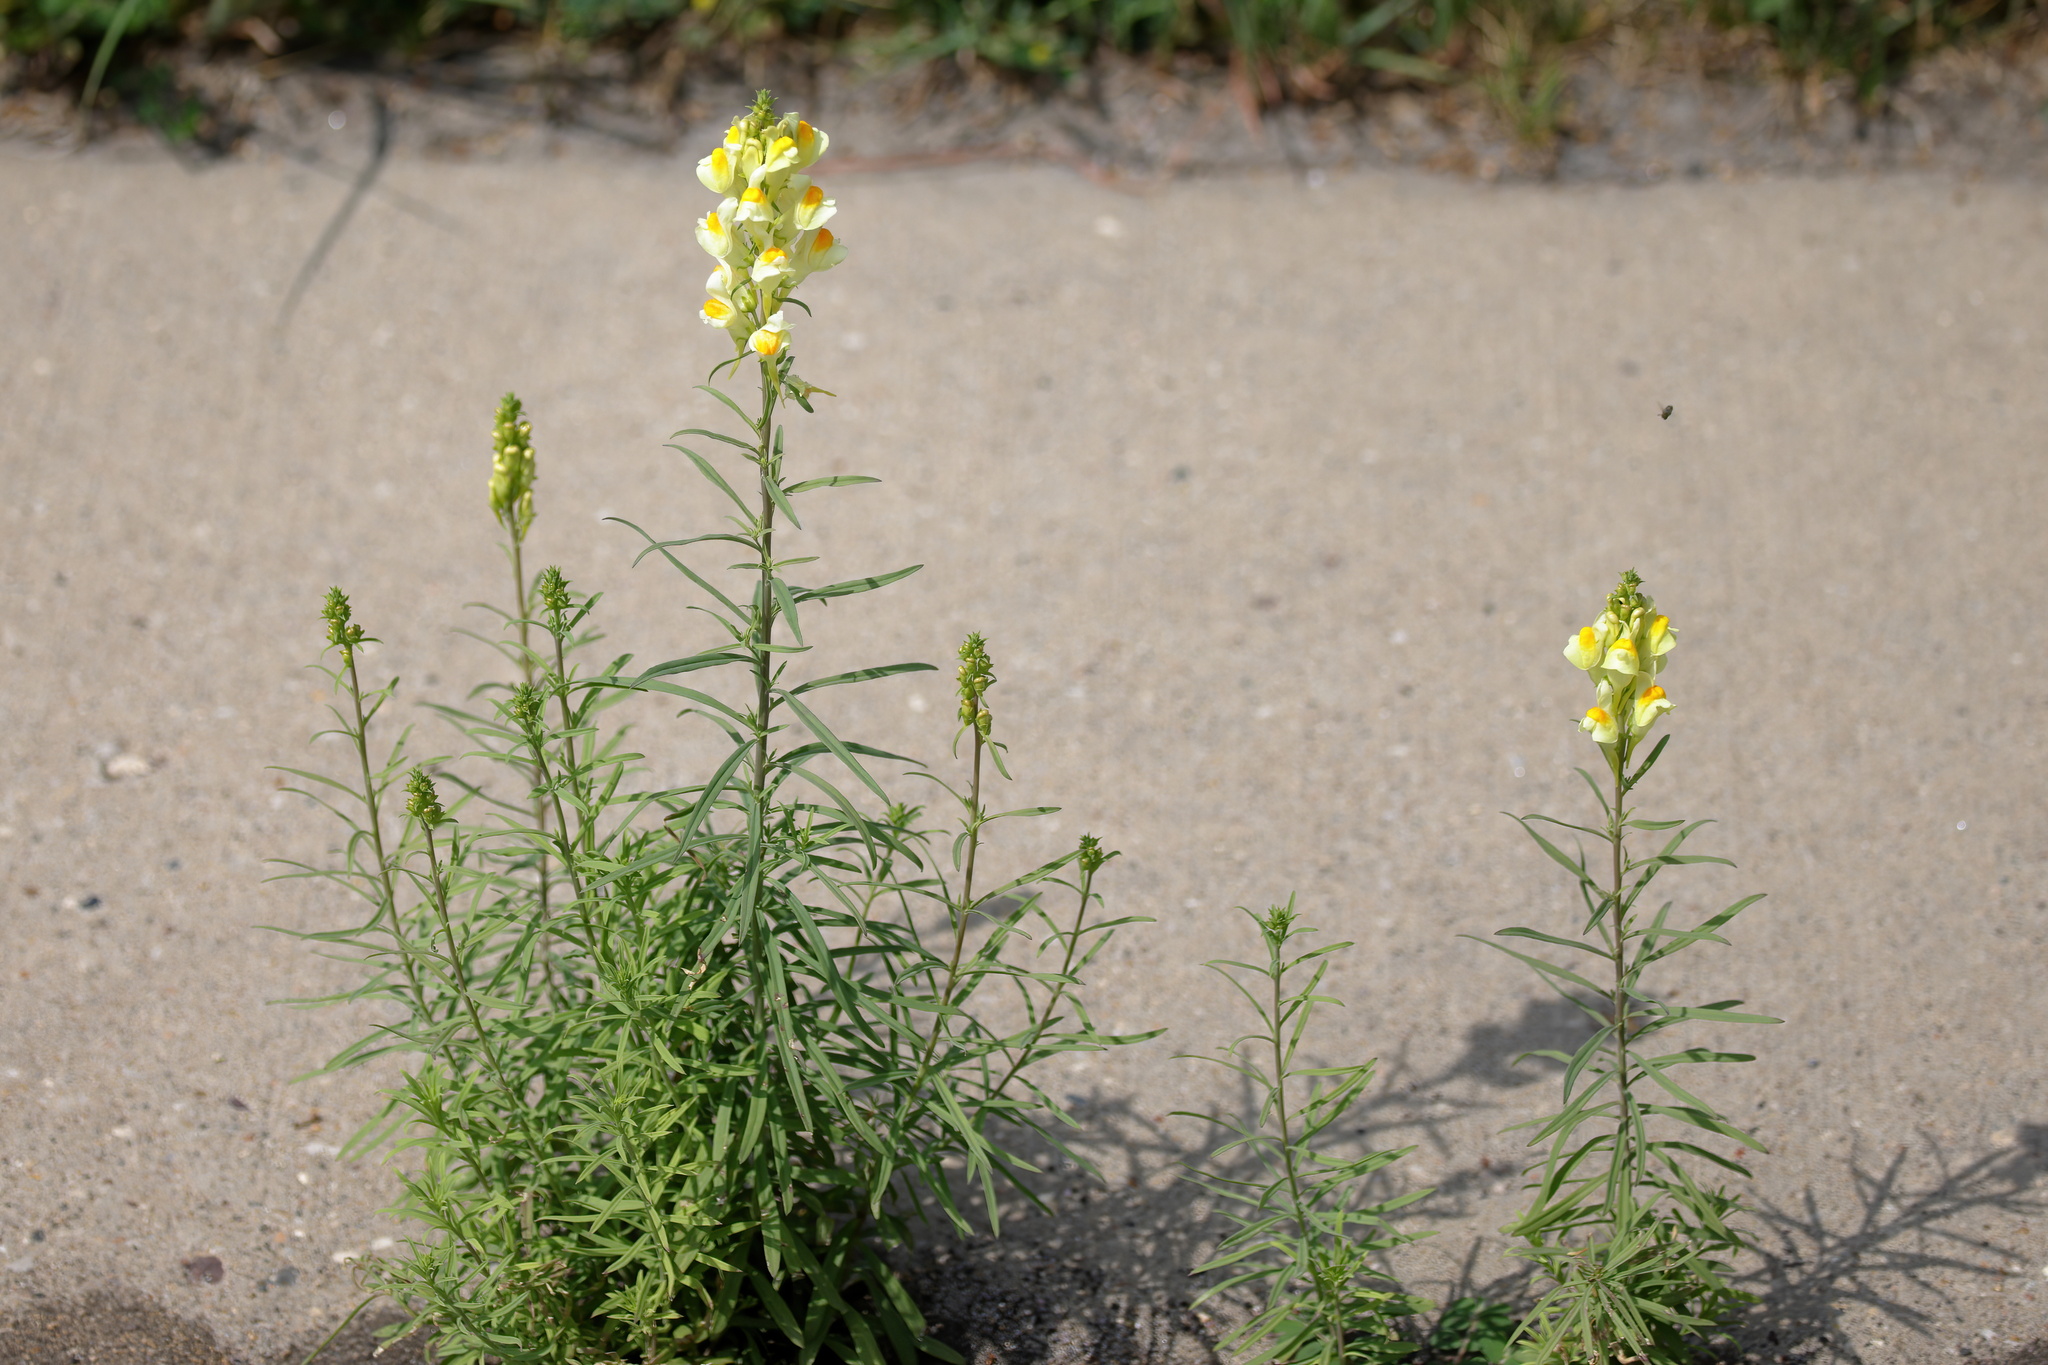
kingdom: Plantae
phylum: Tracheophyta
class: Magnoliopsida
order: Lamiales
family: Plantaginaceae
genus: Linaria
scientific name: Linaria vulgaris
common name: Butter and eggs
